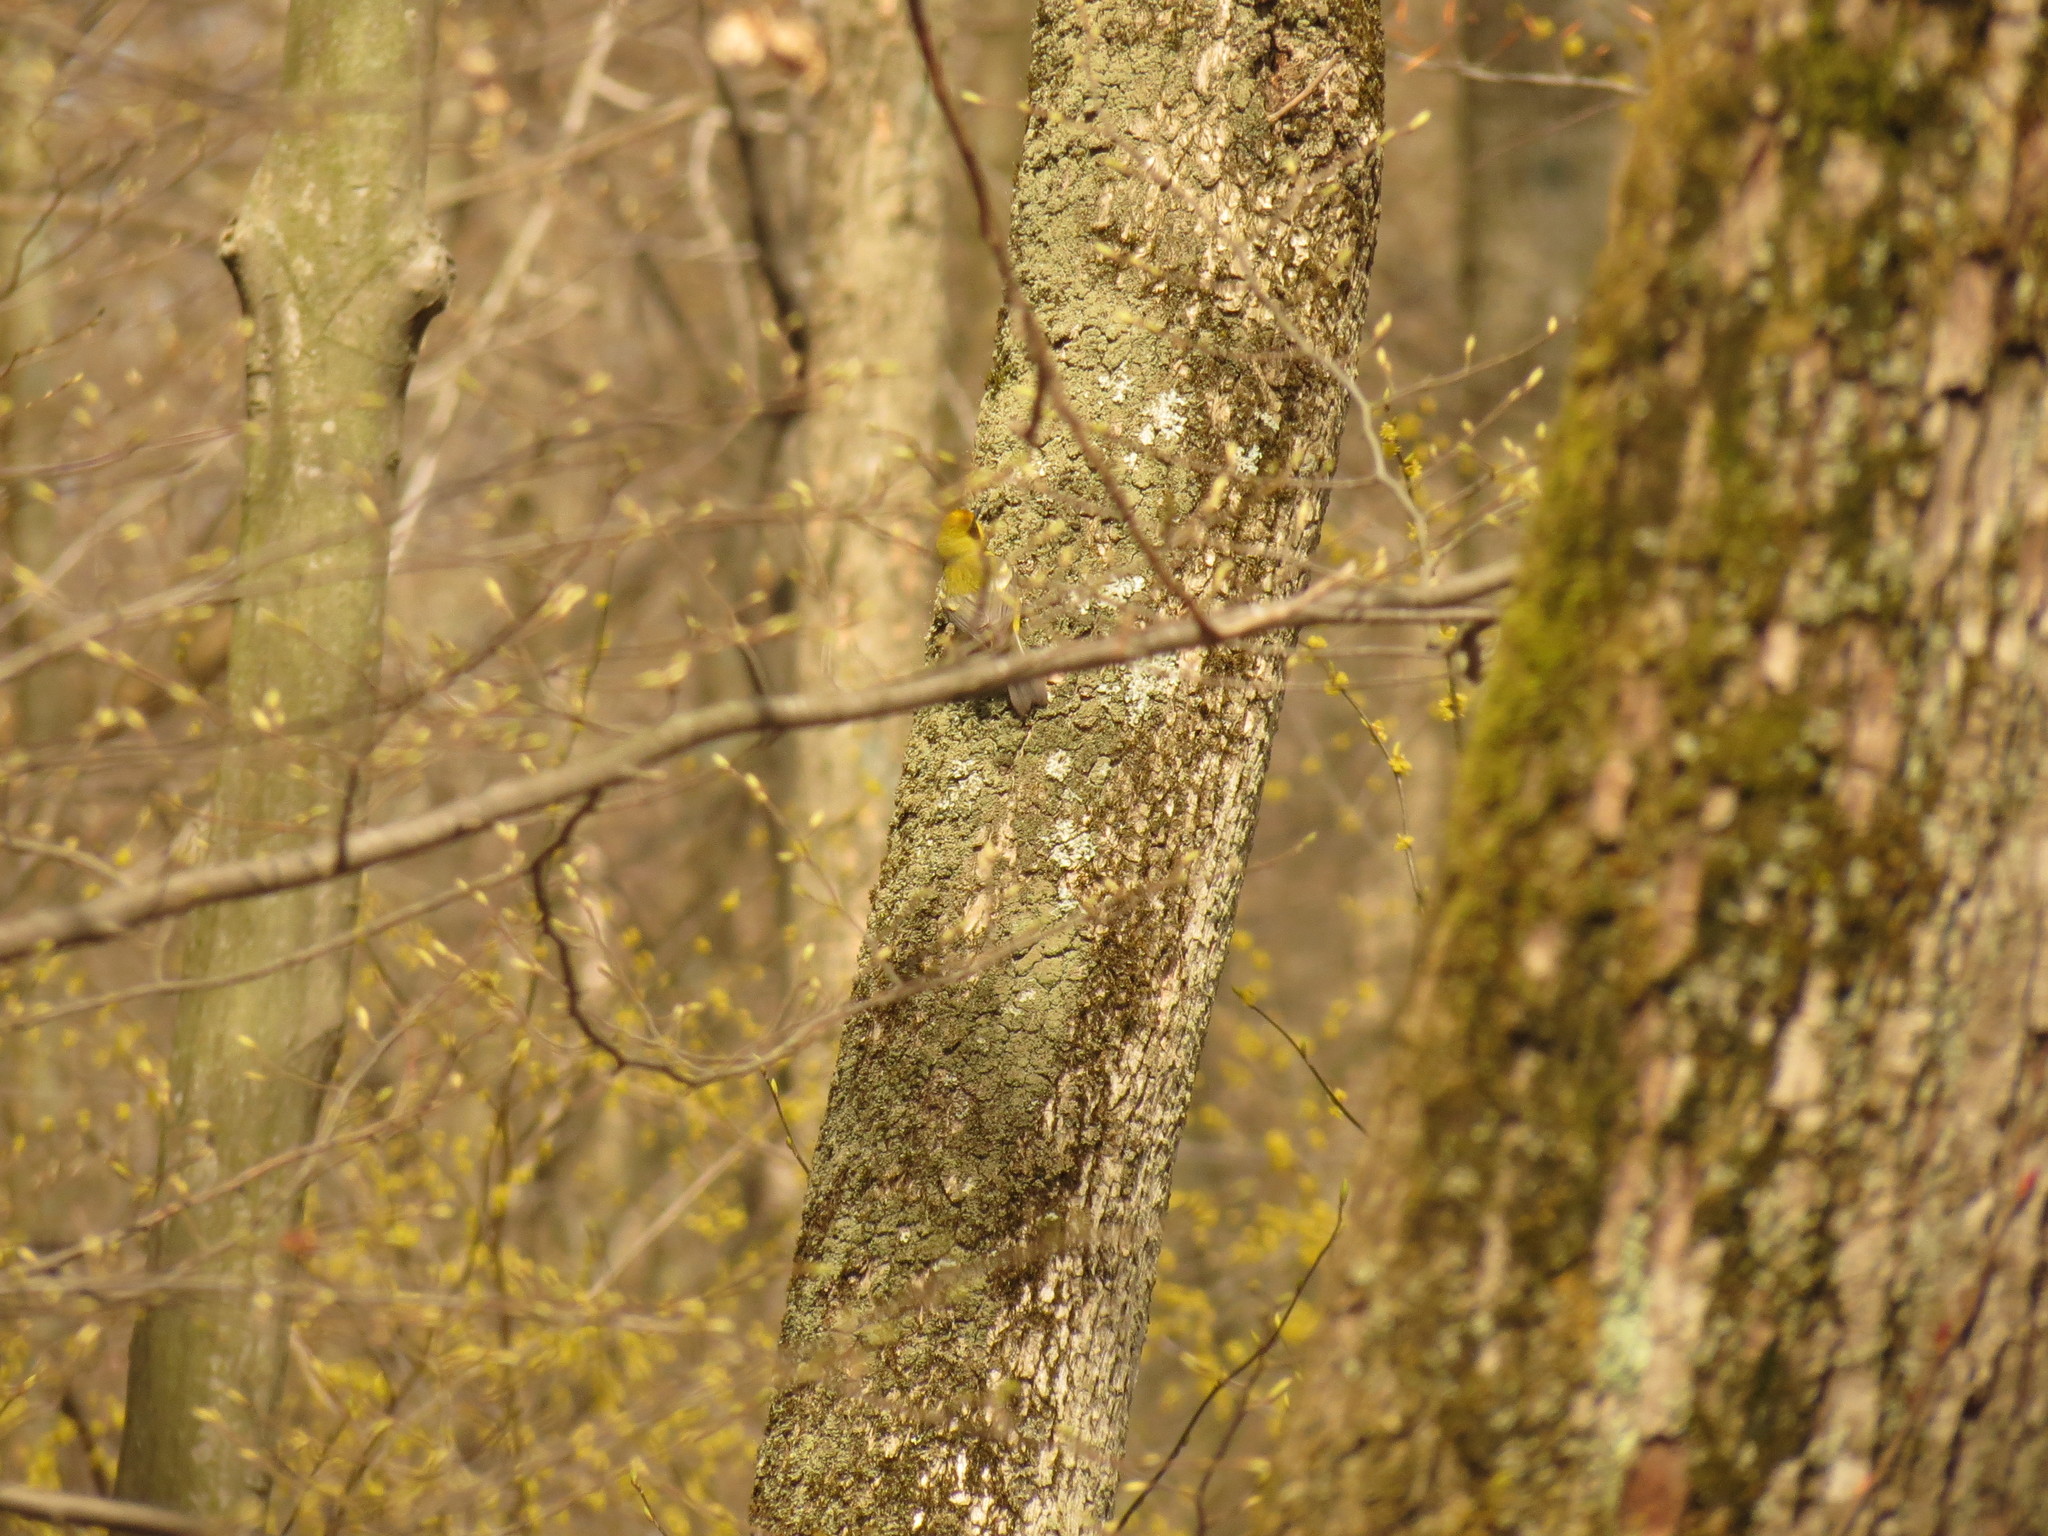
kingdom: Animalia
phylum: Chordata
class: Aves
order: Passeriformes
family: Parulidae
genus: Vermivora
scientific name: Vermivora
